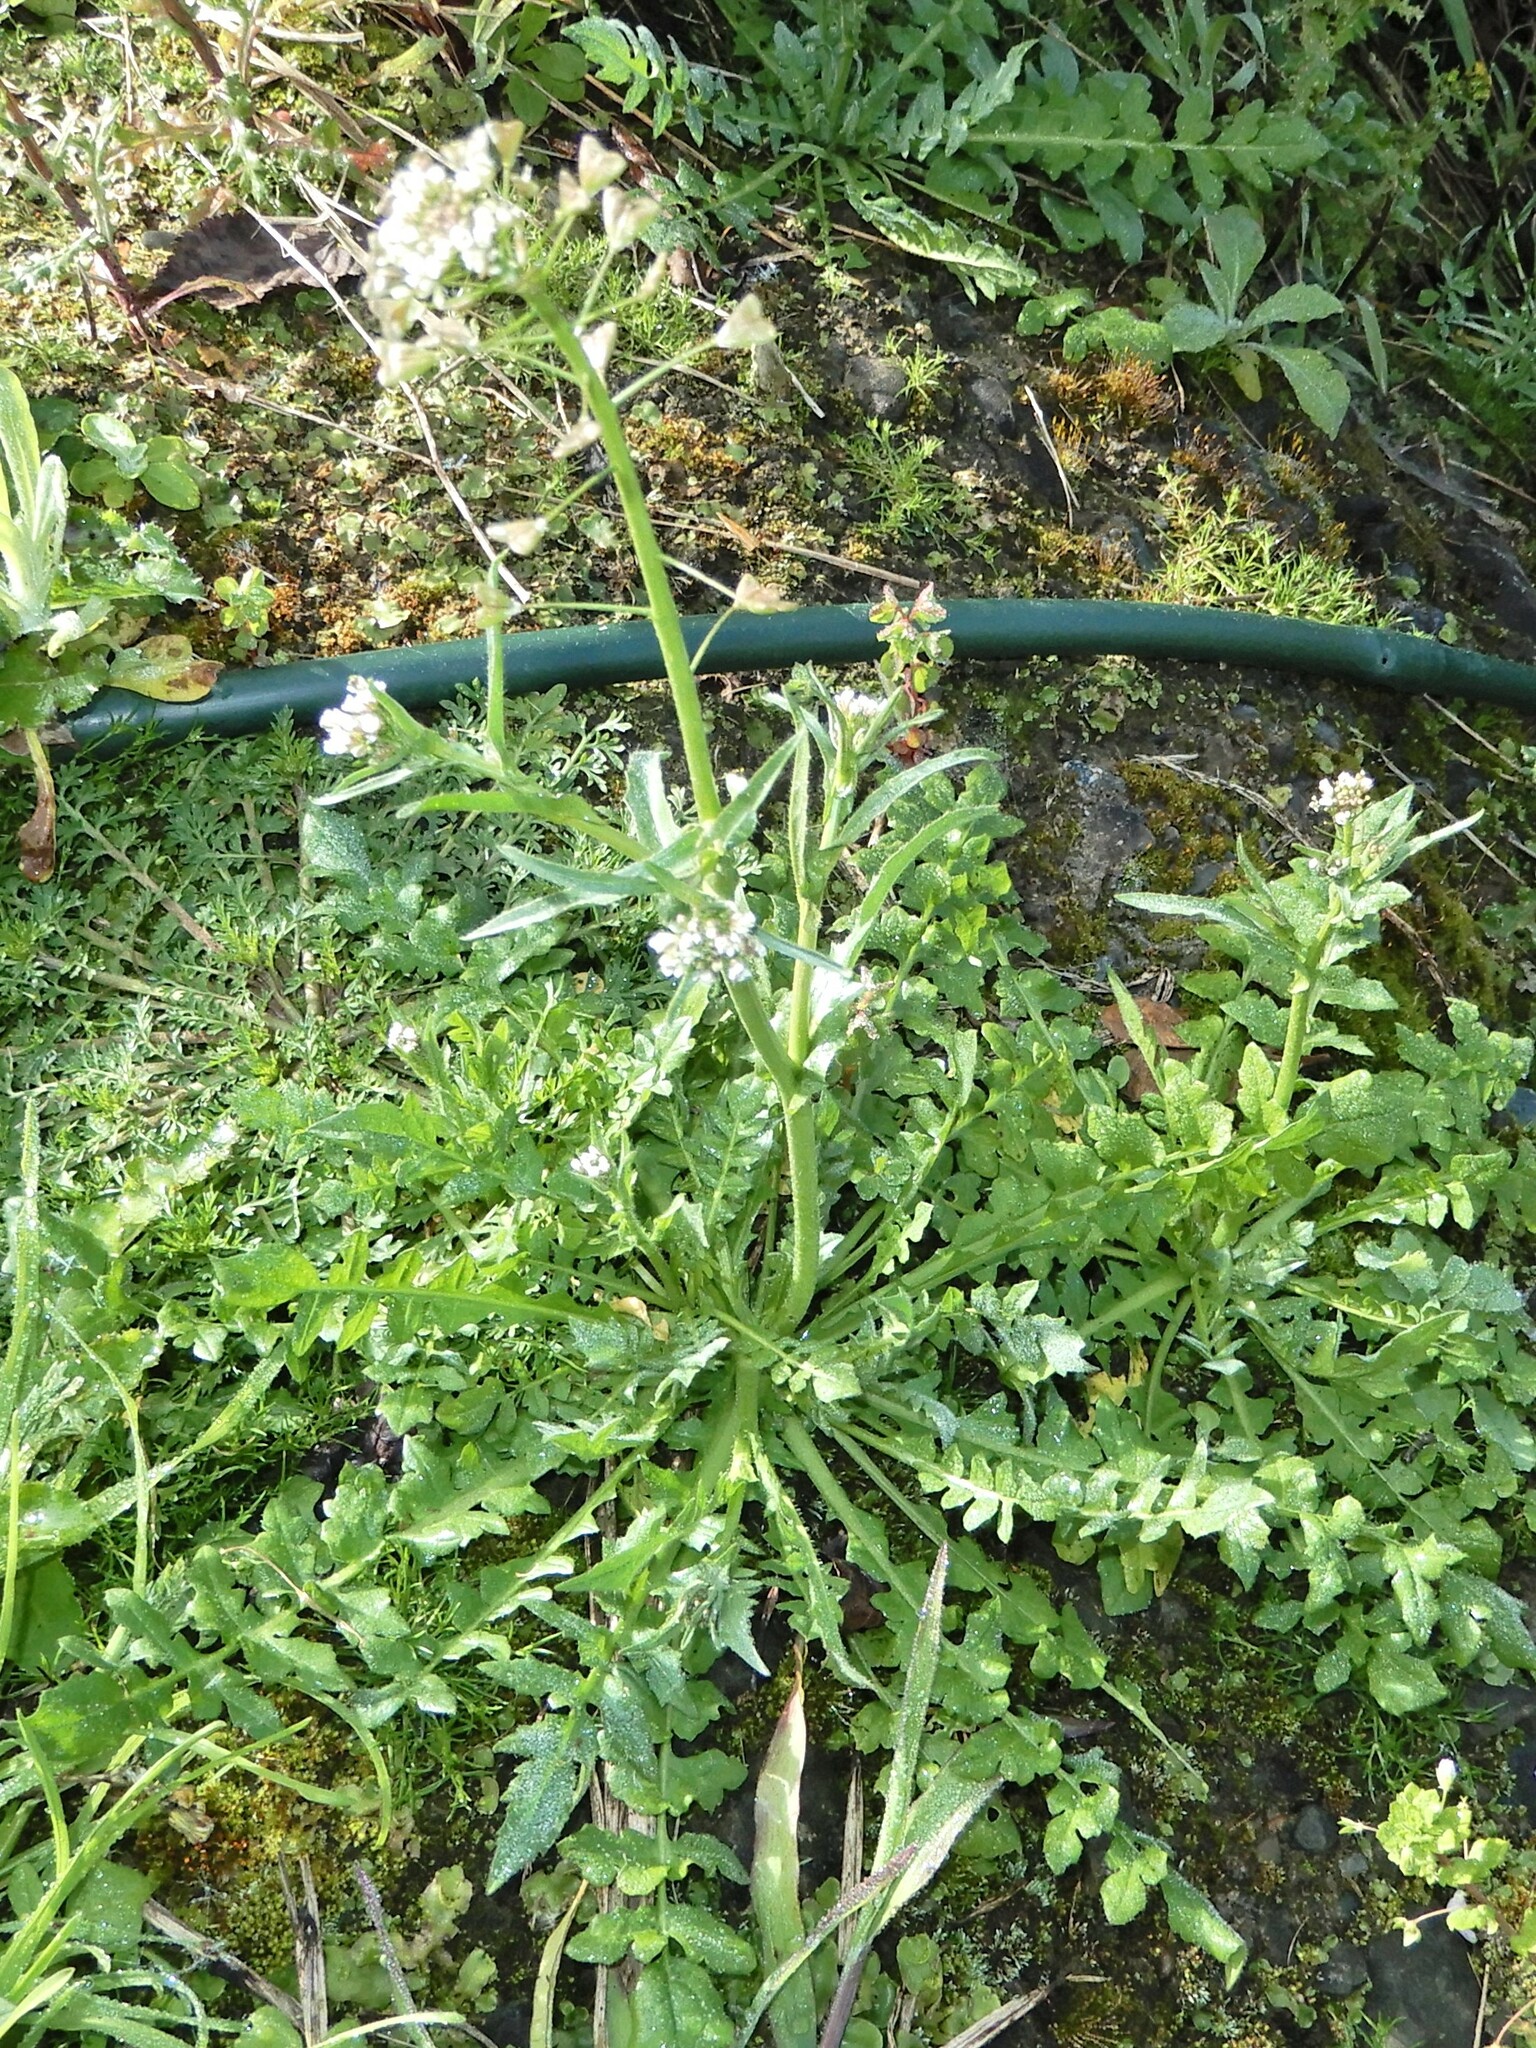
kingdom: Plantae
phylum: Tracheophyta
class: Magnoliopsida
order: Brassicales
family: Brassicaceae
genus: Capsella
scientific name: Capsella bursa-pastoris
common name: Shepherd's purse
